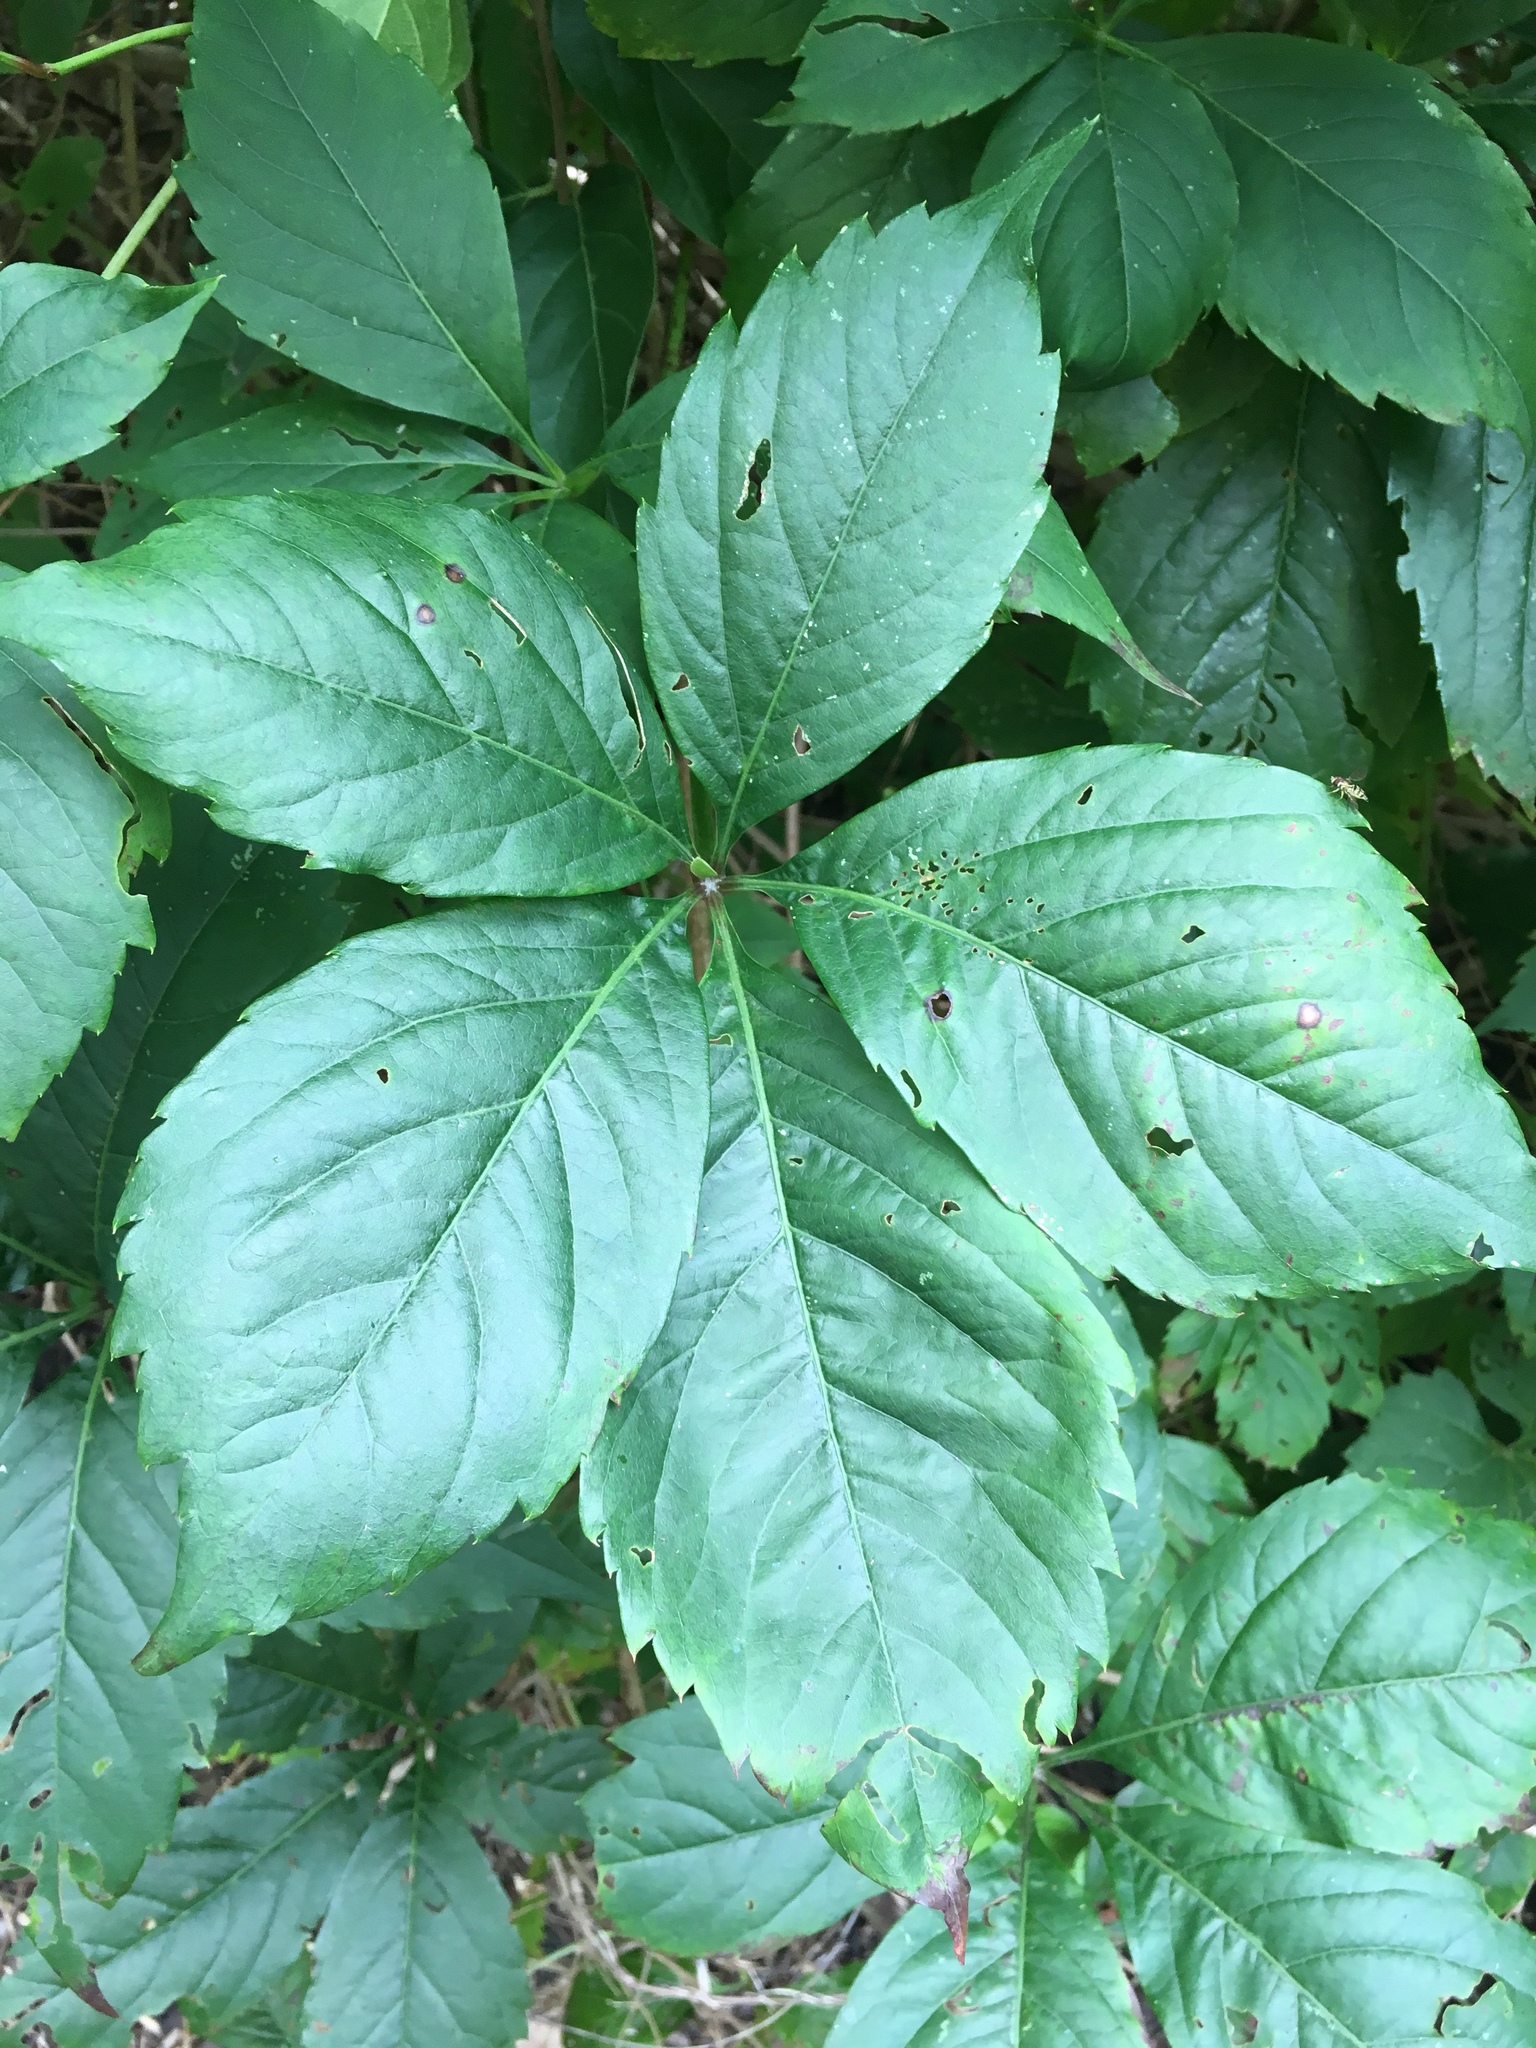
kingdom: Plantae
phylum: Tracheophyta
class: Magnoliopsida
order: Vitales
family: Vitaceae
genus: Parthenocissus
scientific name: Parthenocissus quinquefolia
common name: Virginia-creeper
